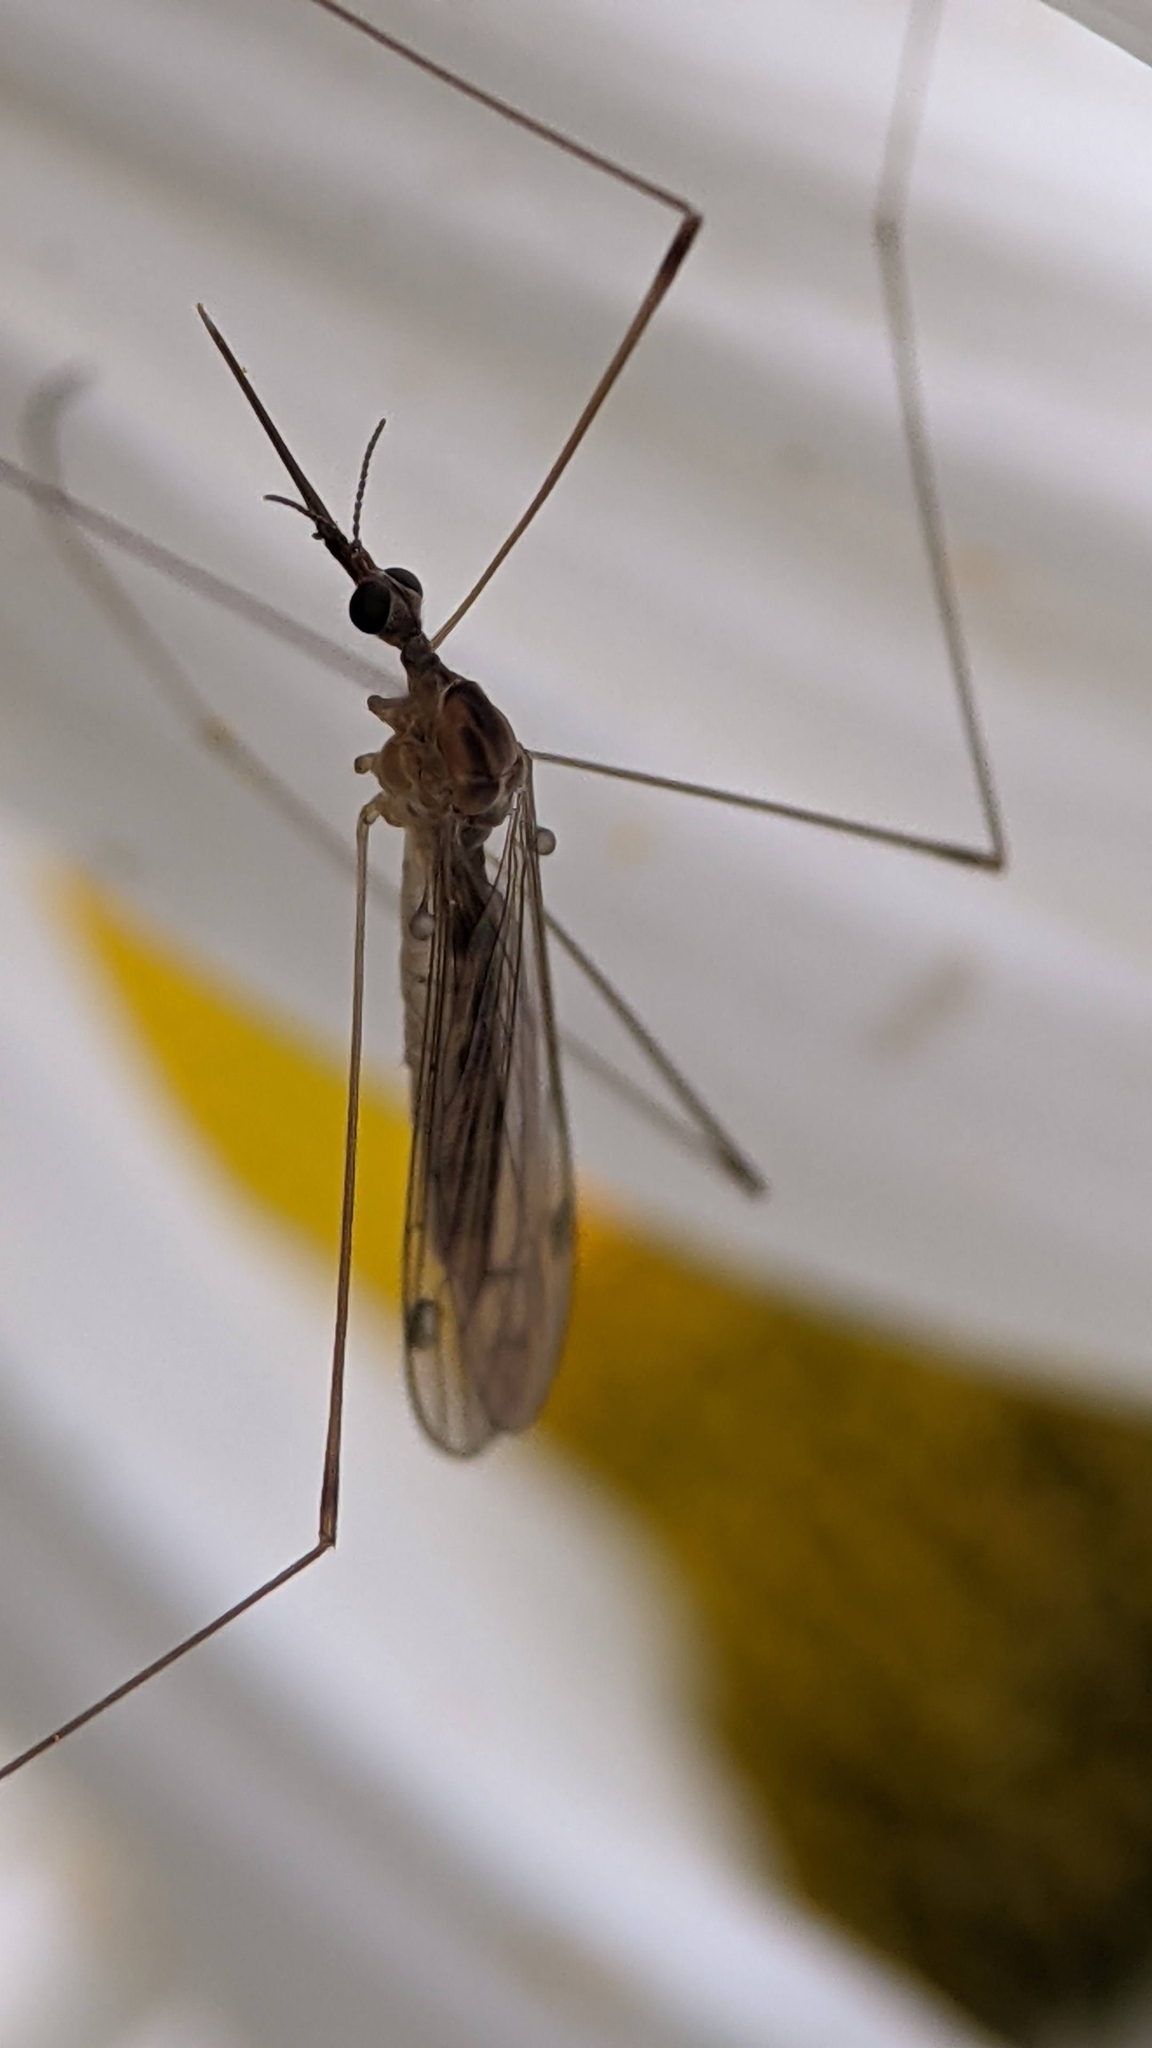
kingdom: Animalia
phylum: Arthropoda
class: Insecta
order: Diptera
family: Limoniidae
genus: Geranomyia
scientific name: Geranomyia canadensis
